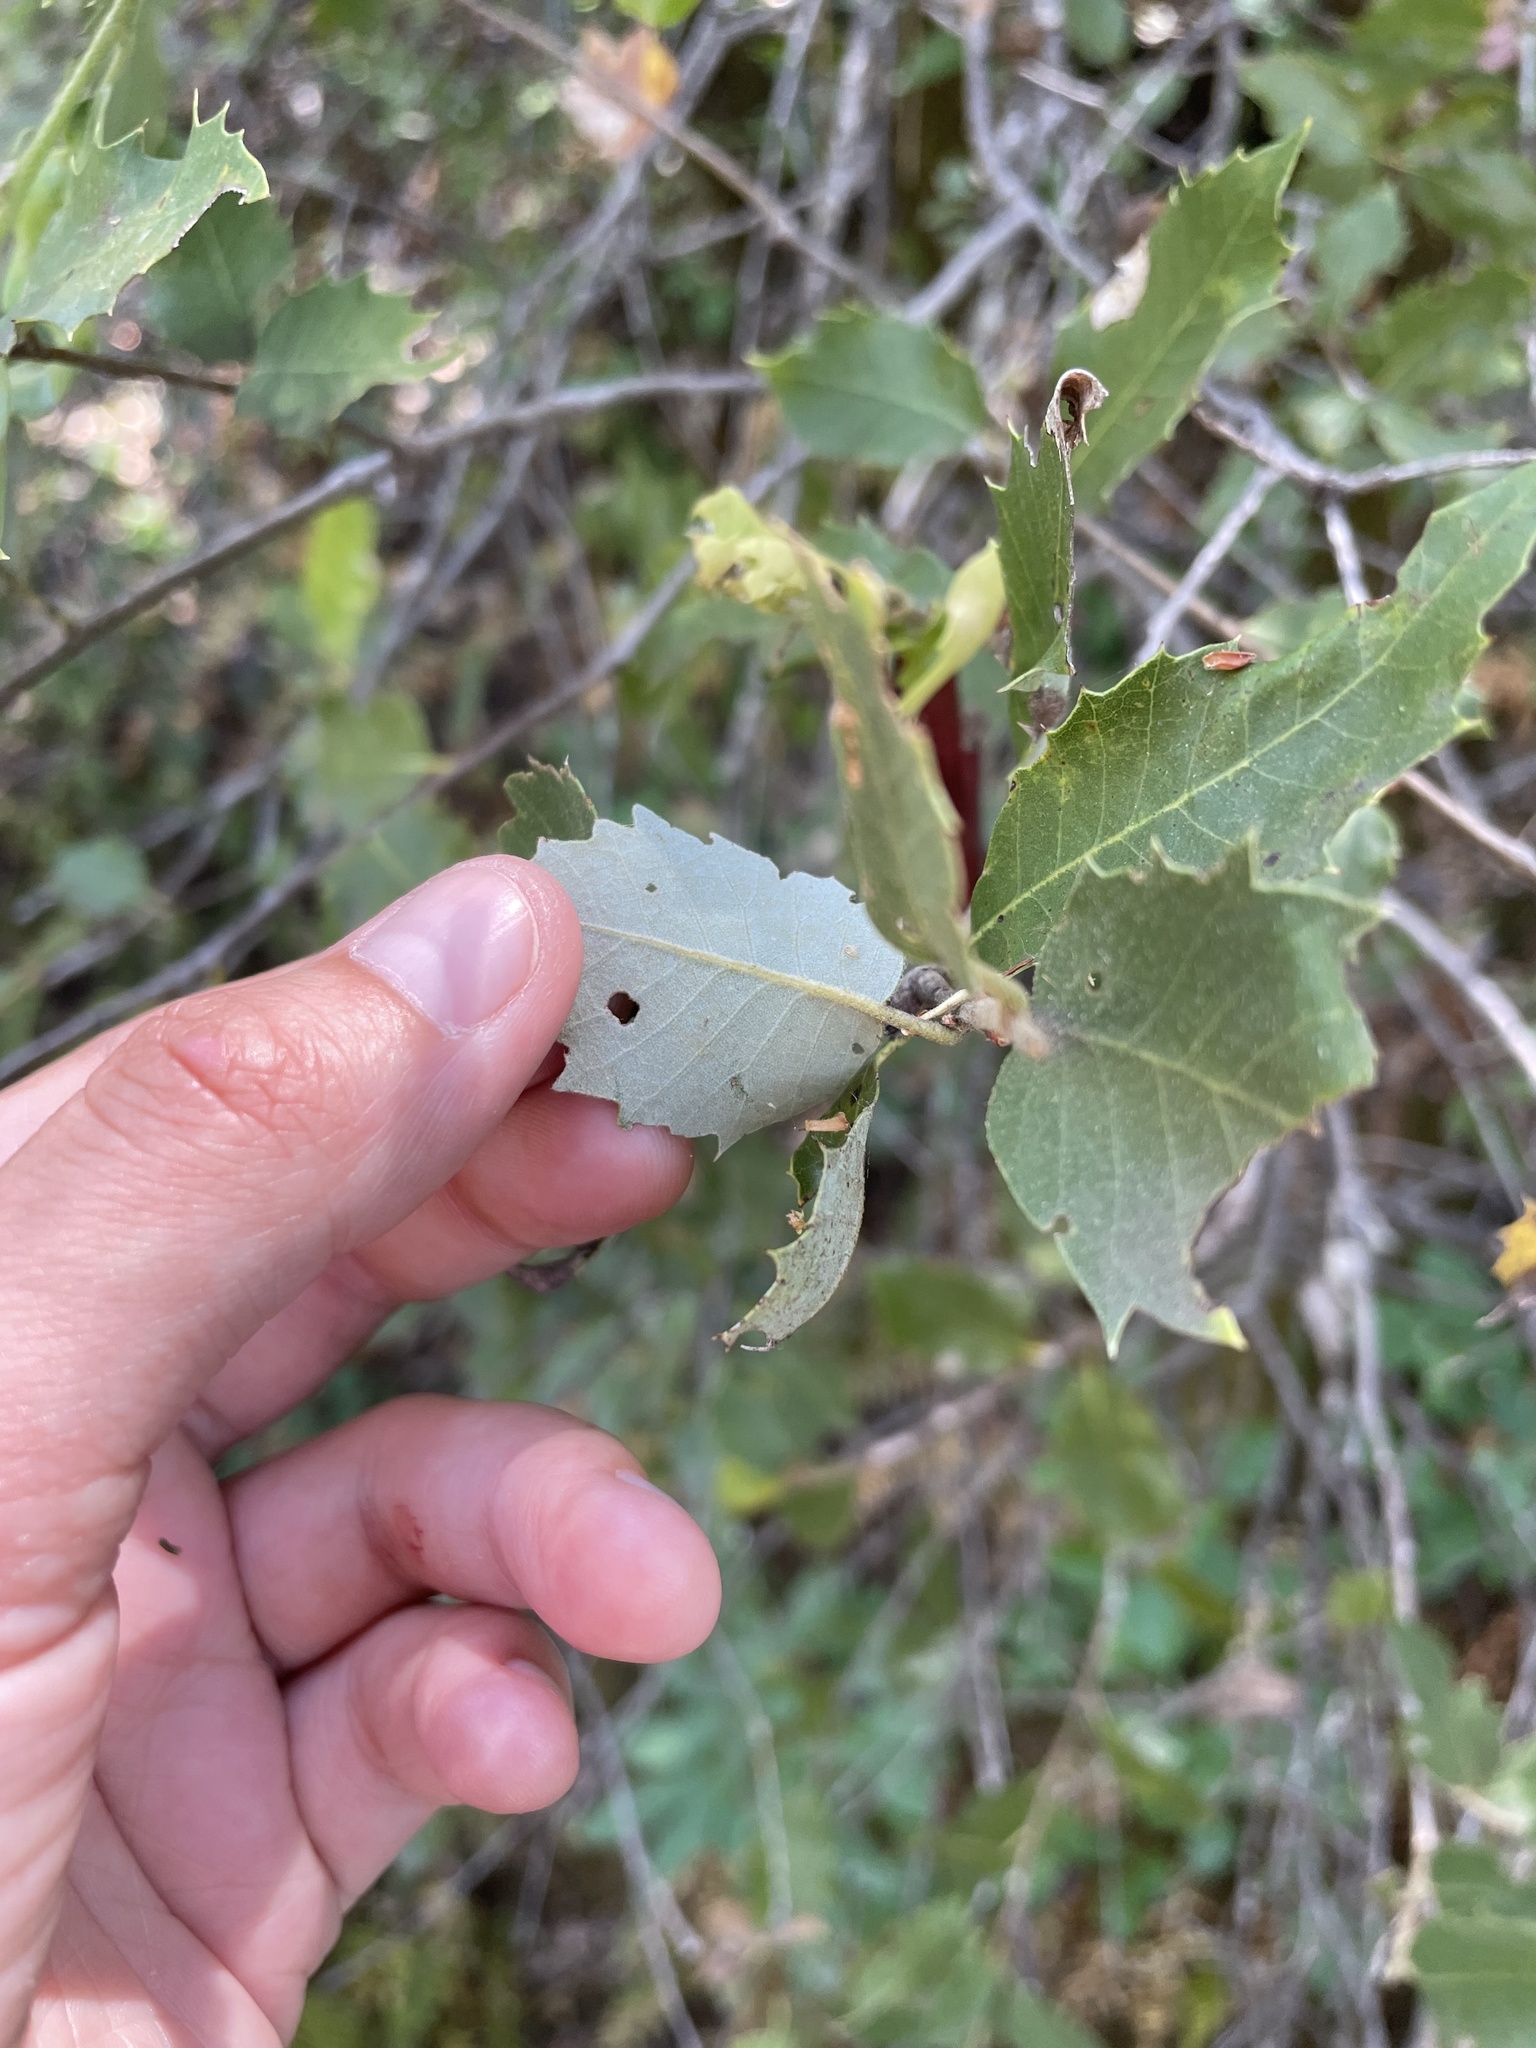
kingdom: Plantae
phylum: Tracheophyta
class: Magnoliopsida
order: Fagales
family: Fagaceae
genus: Quercus
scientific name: Quercus chrysolepis
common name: Canyon live oak
